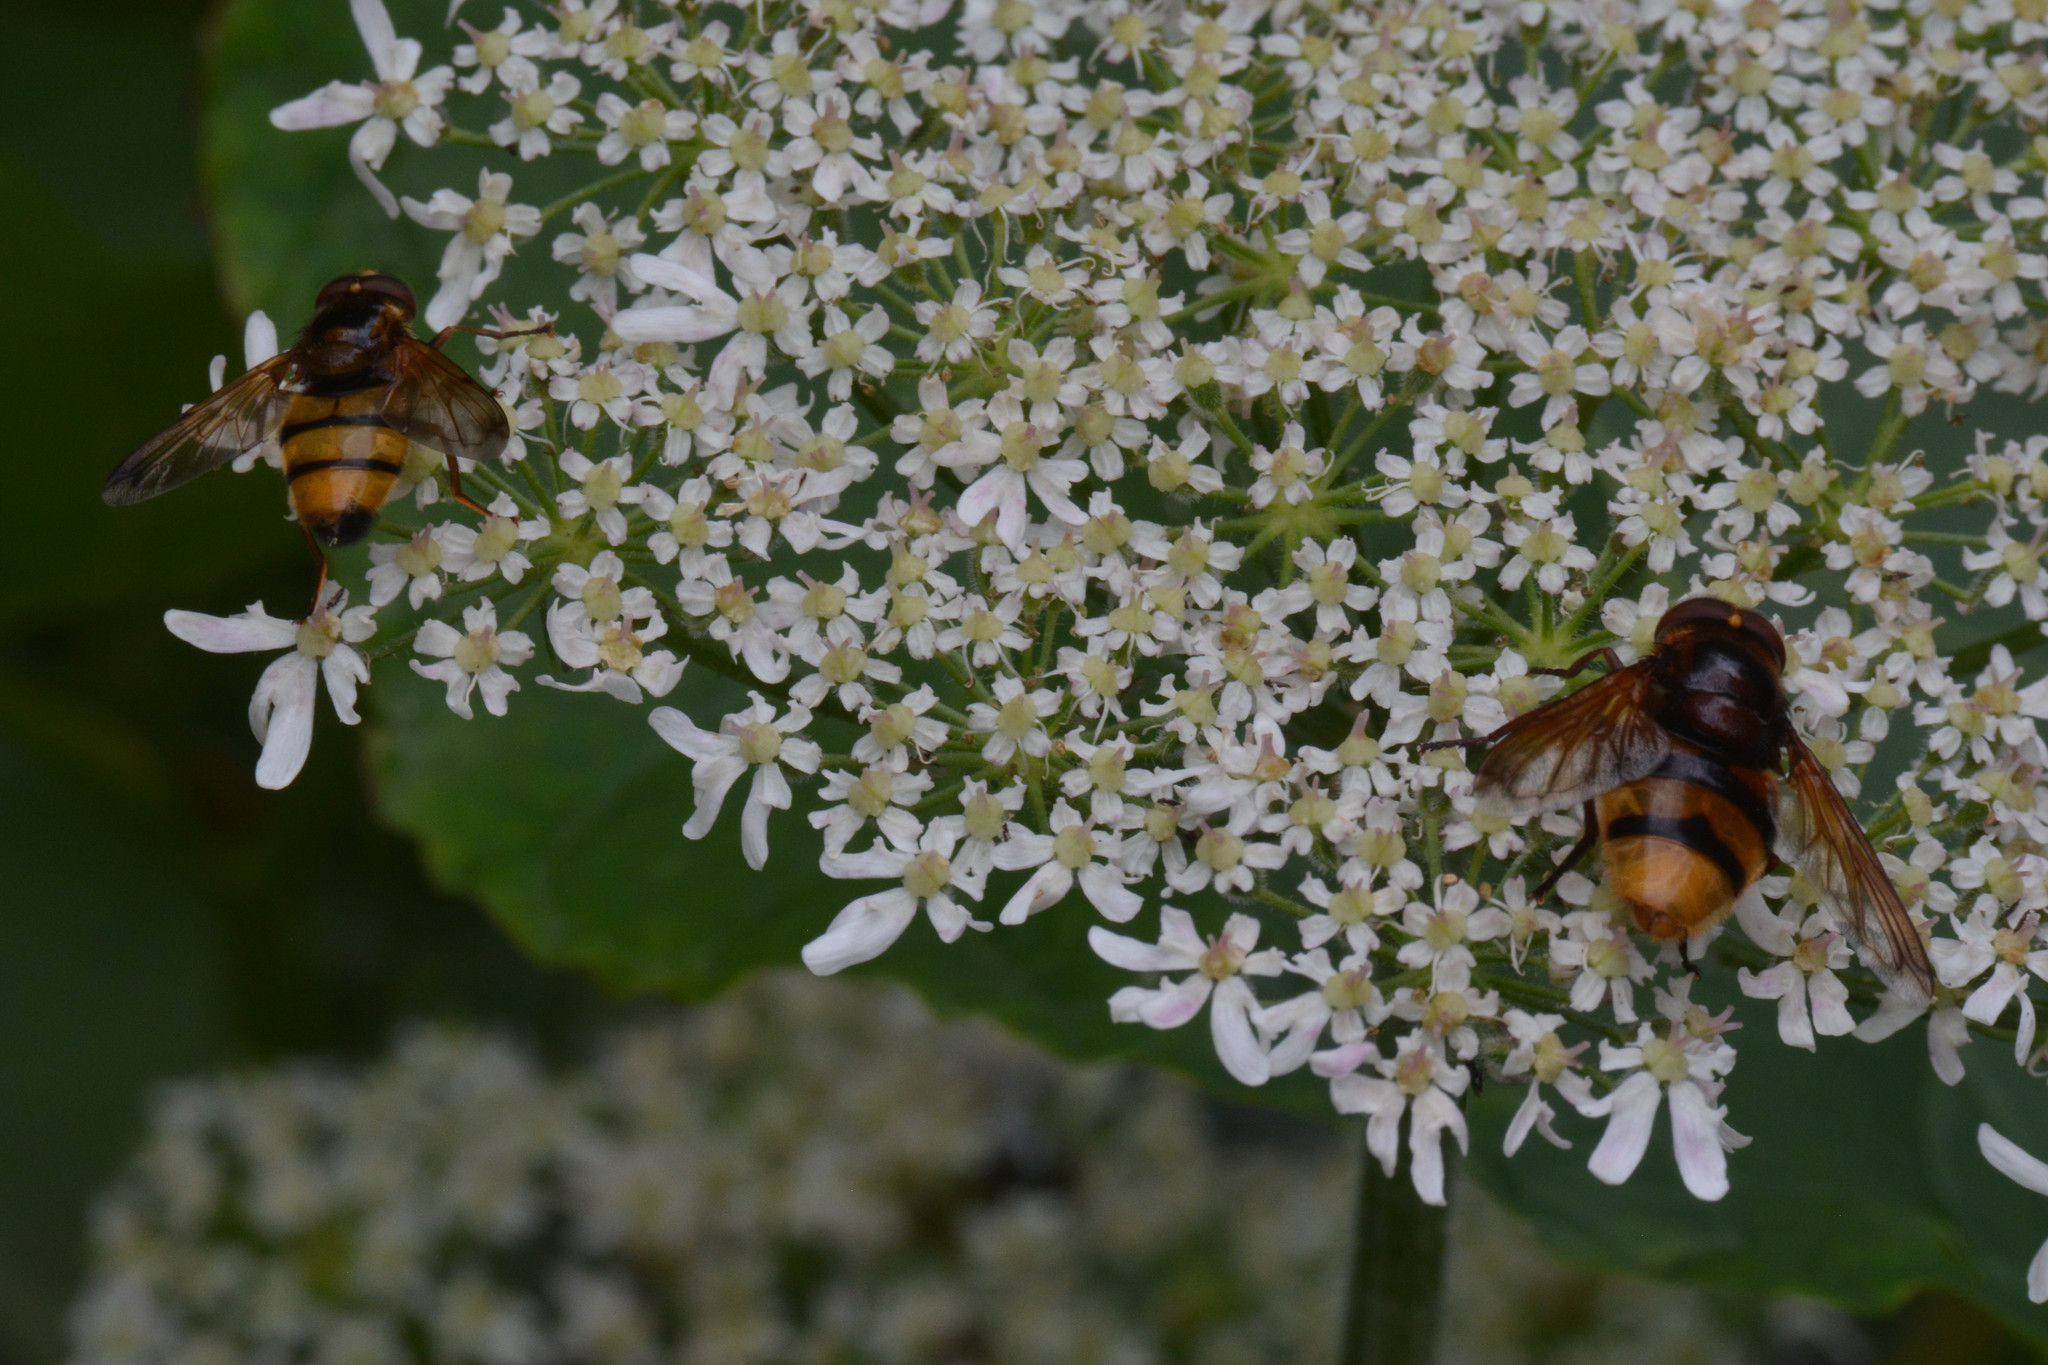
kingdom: Animalia
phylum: Arthropoda
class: Insecta
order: Diptera
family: Syrphidae
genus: Volucella
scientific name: Volucella zonaria
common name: Hornet hoverfly
